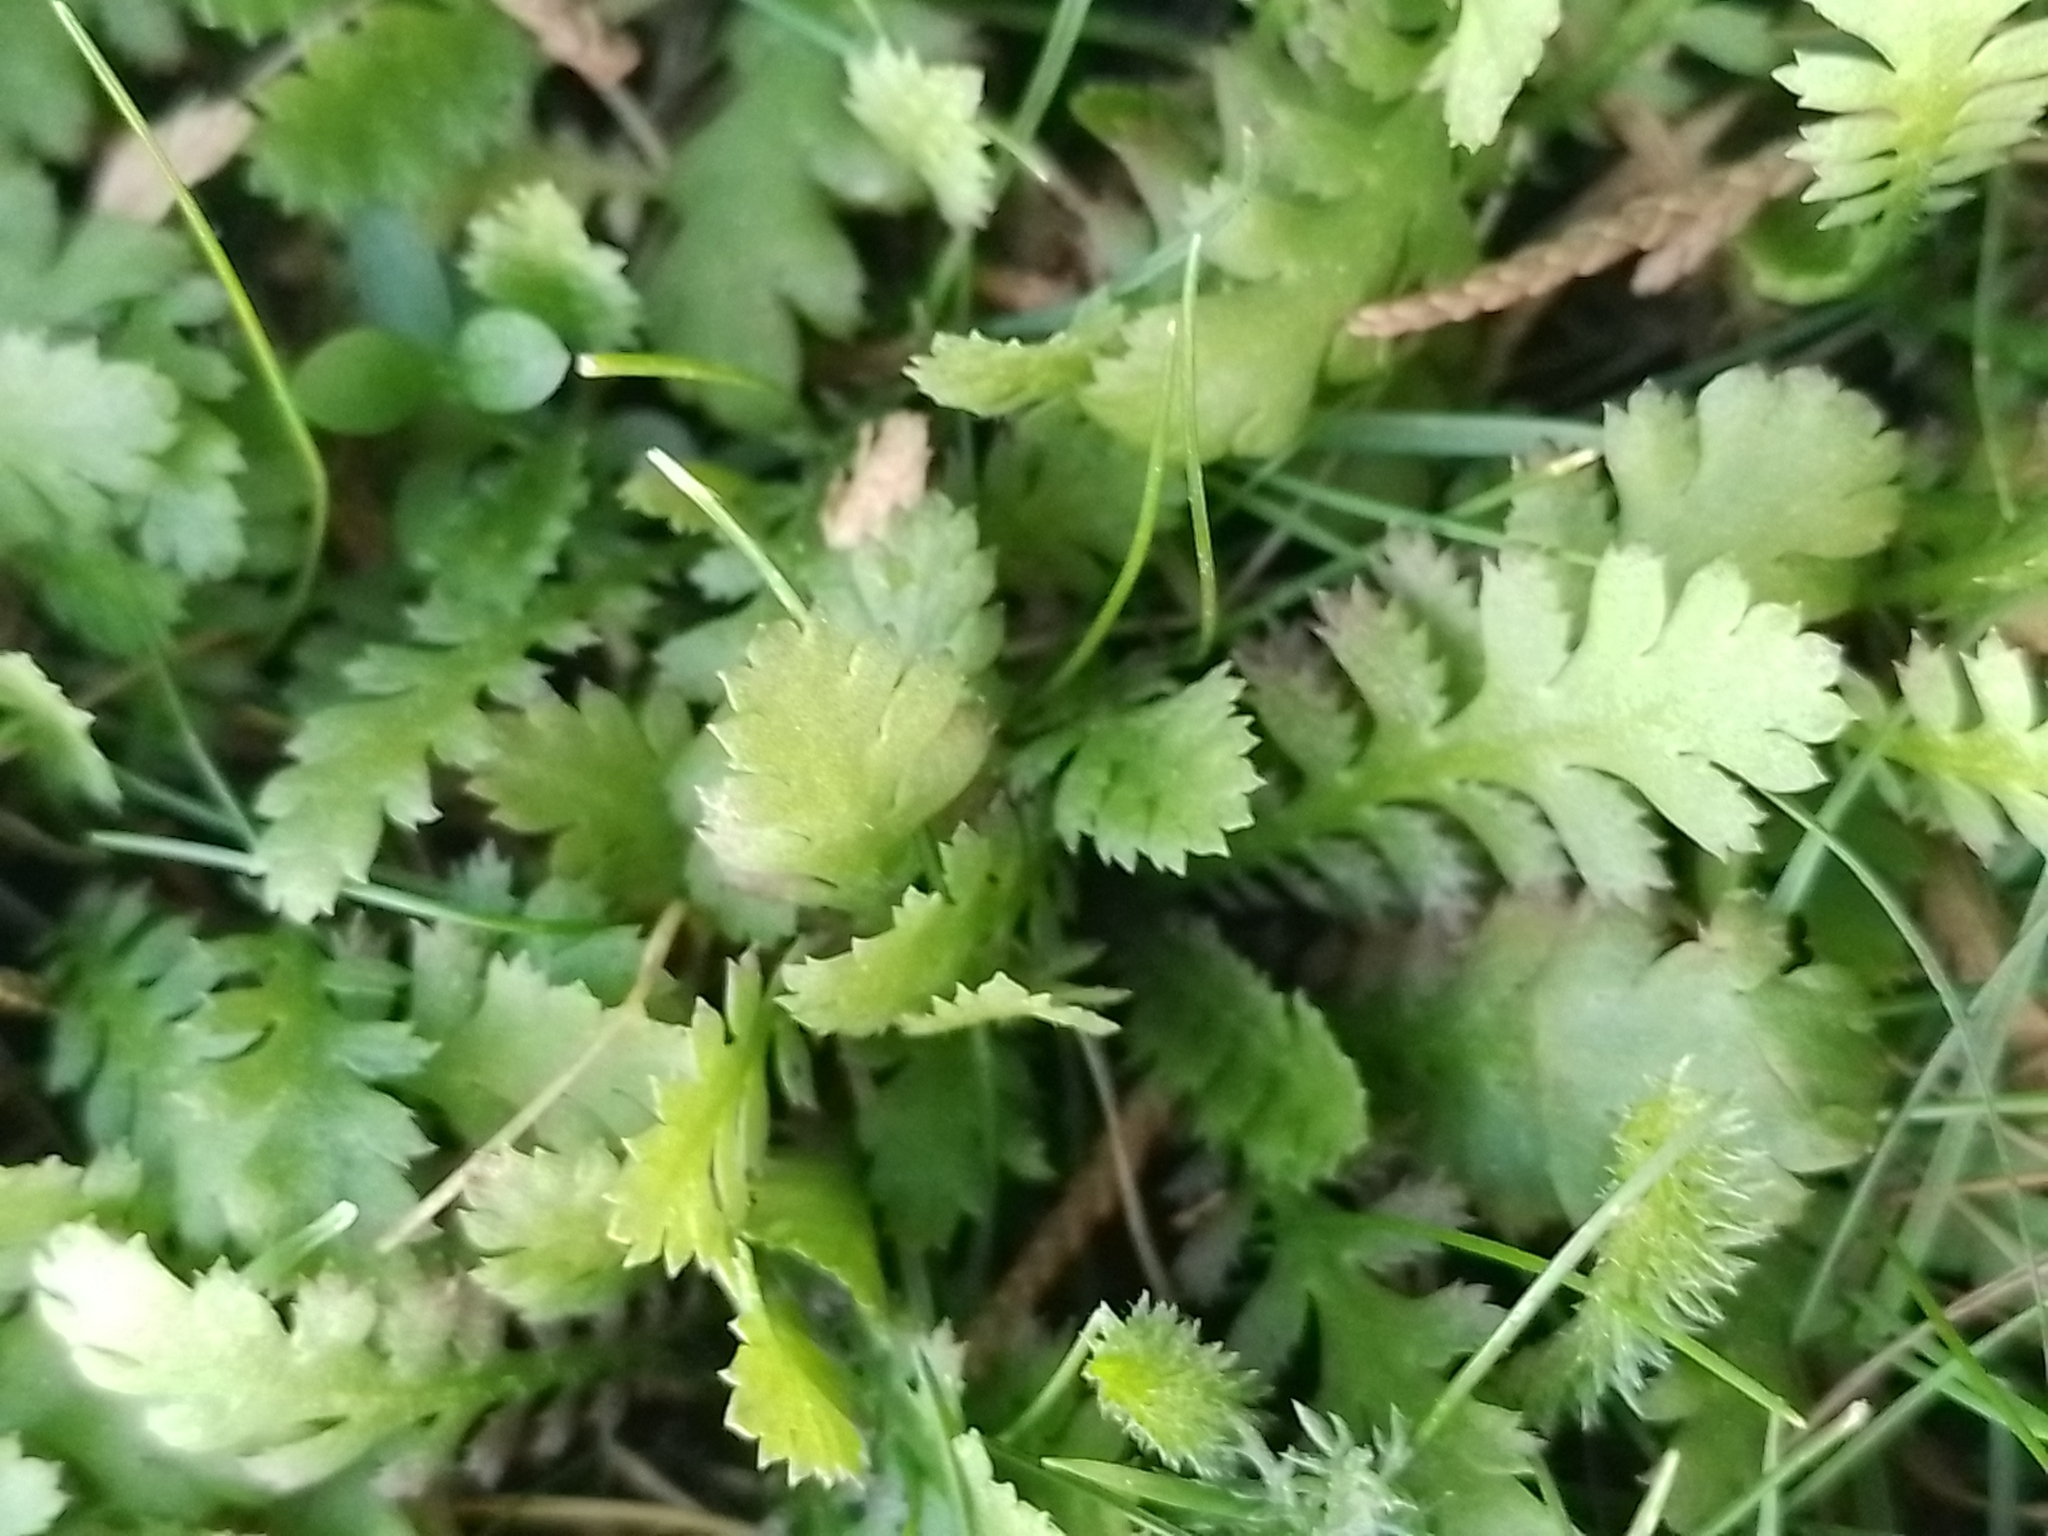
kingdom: Plantae
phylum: Tracheophyta
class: Magnoliopsida
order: Asterales
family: Asteraceae
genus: Leptinella
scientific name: Leptinella squalida
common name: New zealand brass-buttons
